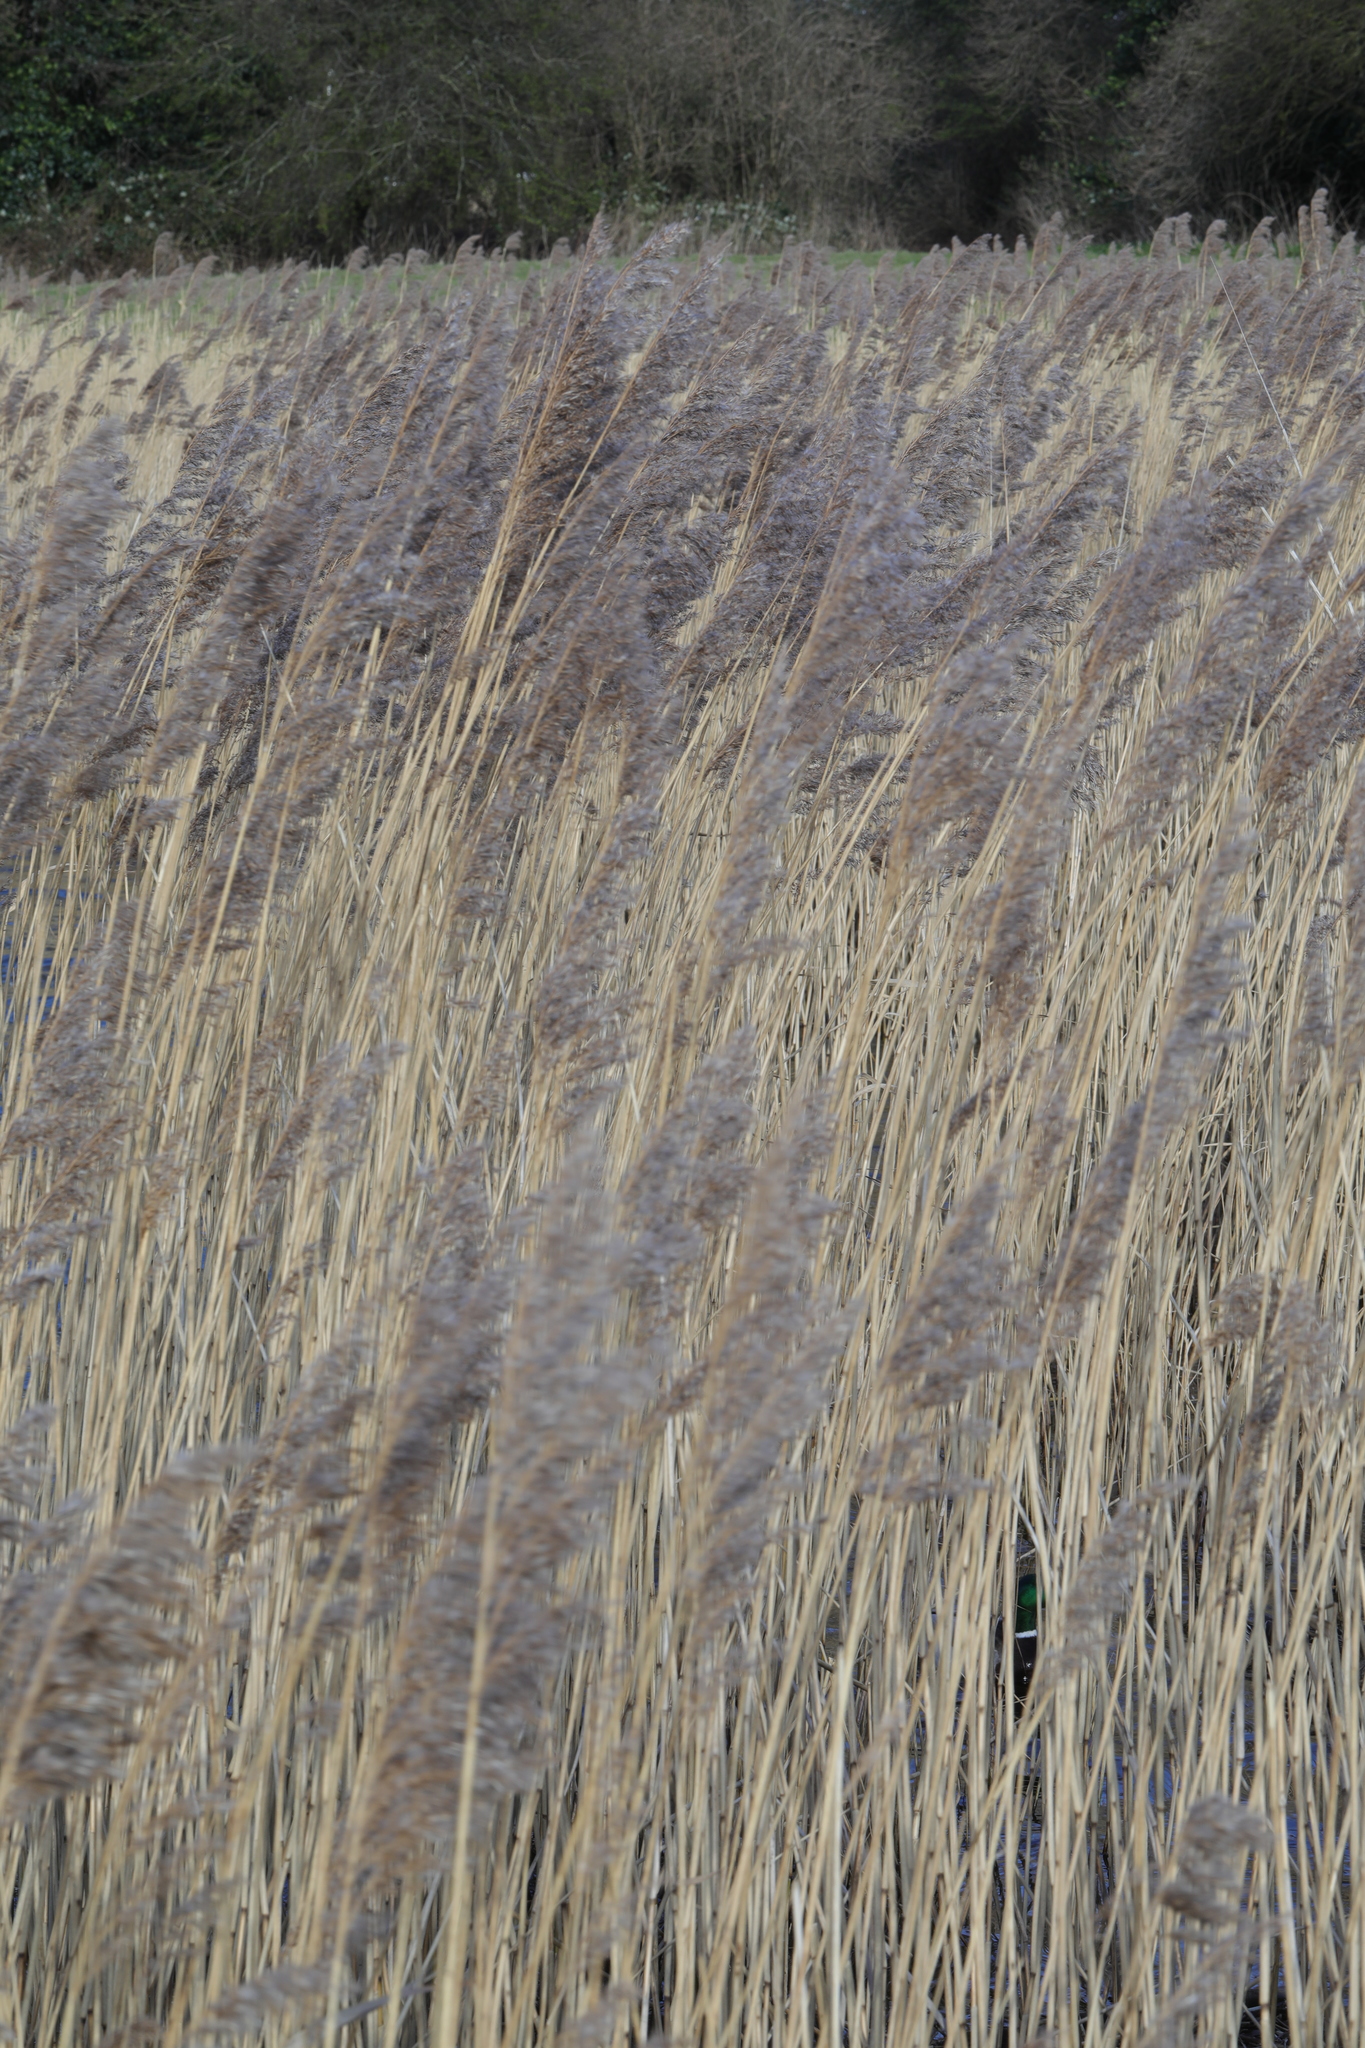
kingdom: Plantae
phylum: Tracheophyta
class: Liliopsida
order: Poales
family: Poaceae
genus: Phragmites
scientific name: Phragmites australis
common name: Common reed
